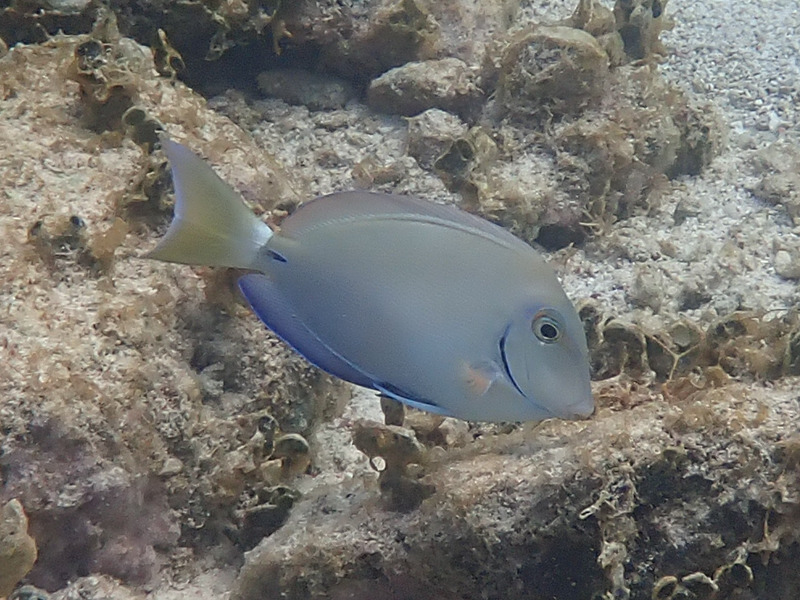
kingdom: Animalia
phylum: Chordata
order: Perciformes
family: Acanthuridae
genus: Acanthurus
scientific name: Acanthurus bahianus
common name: Ocean surgeon
